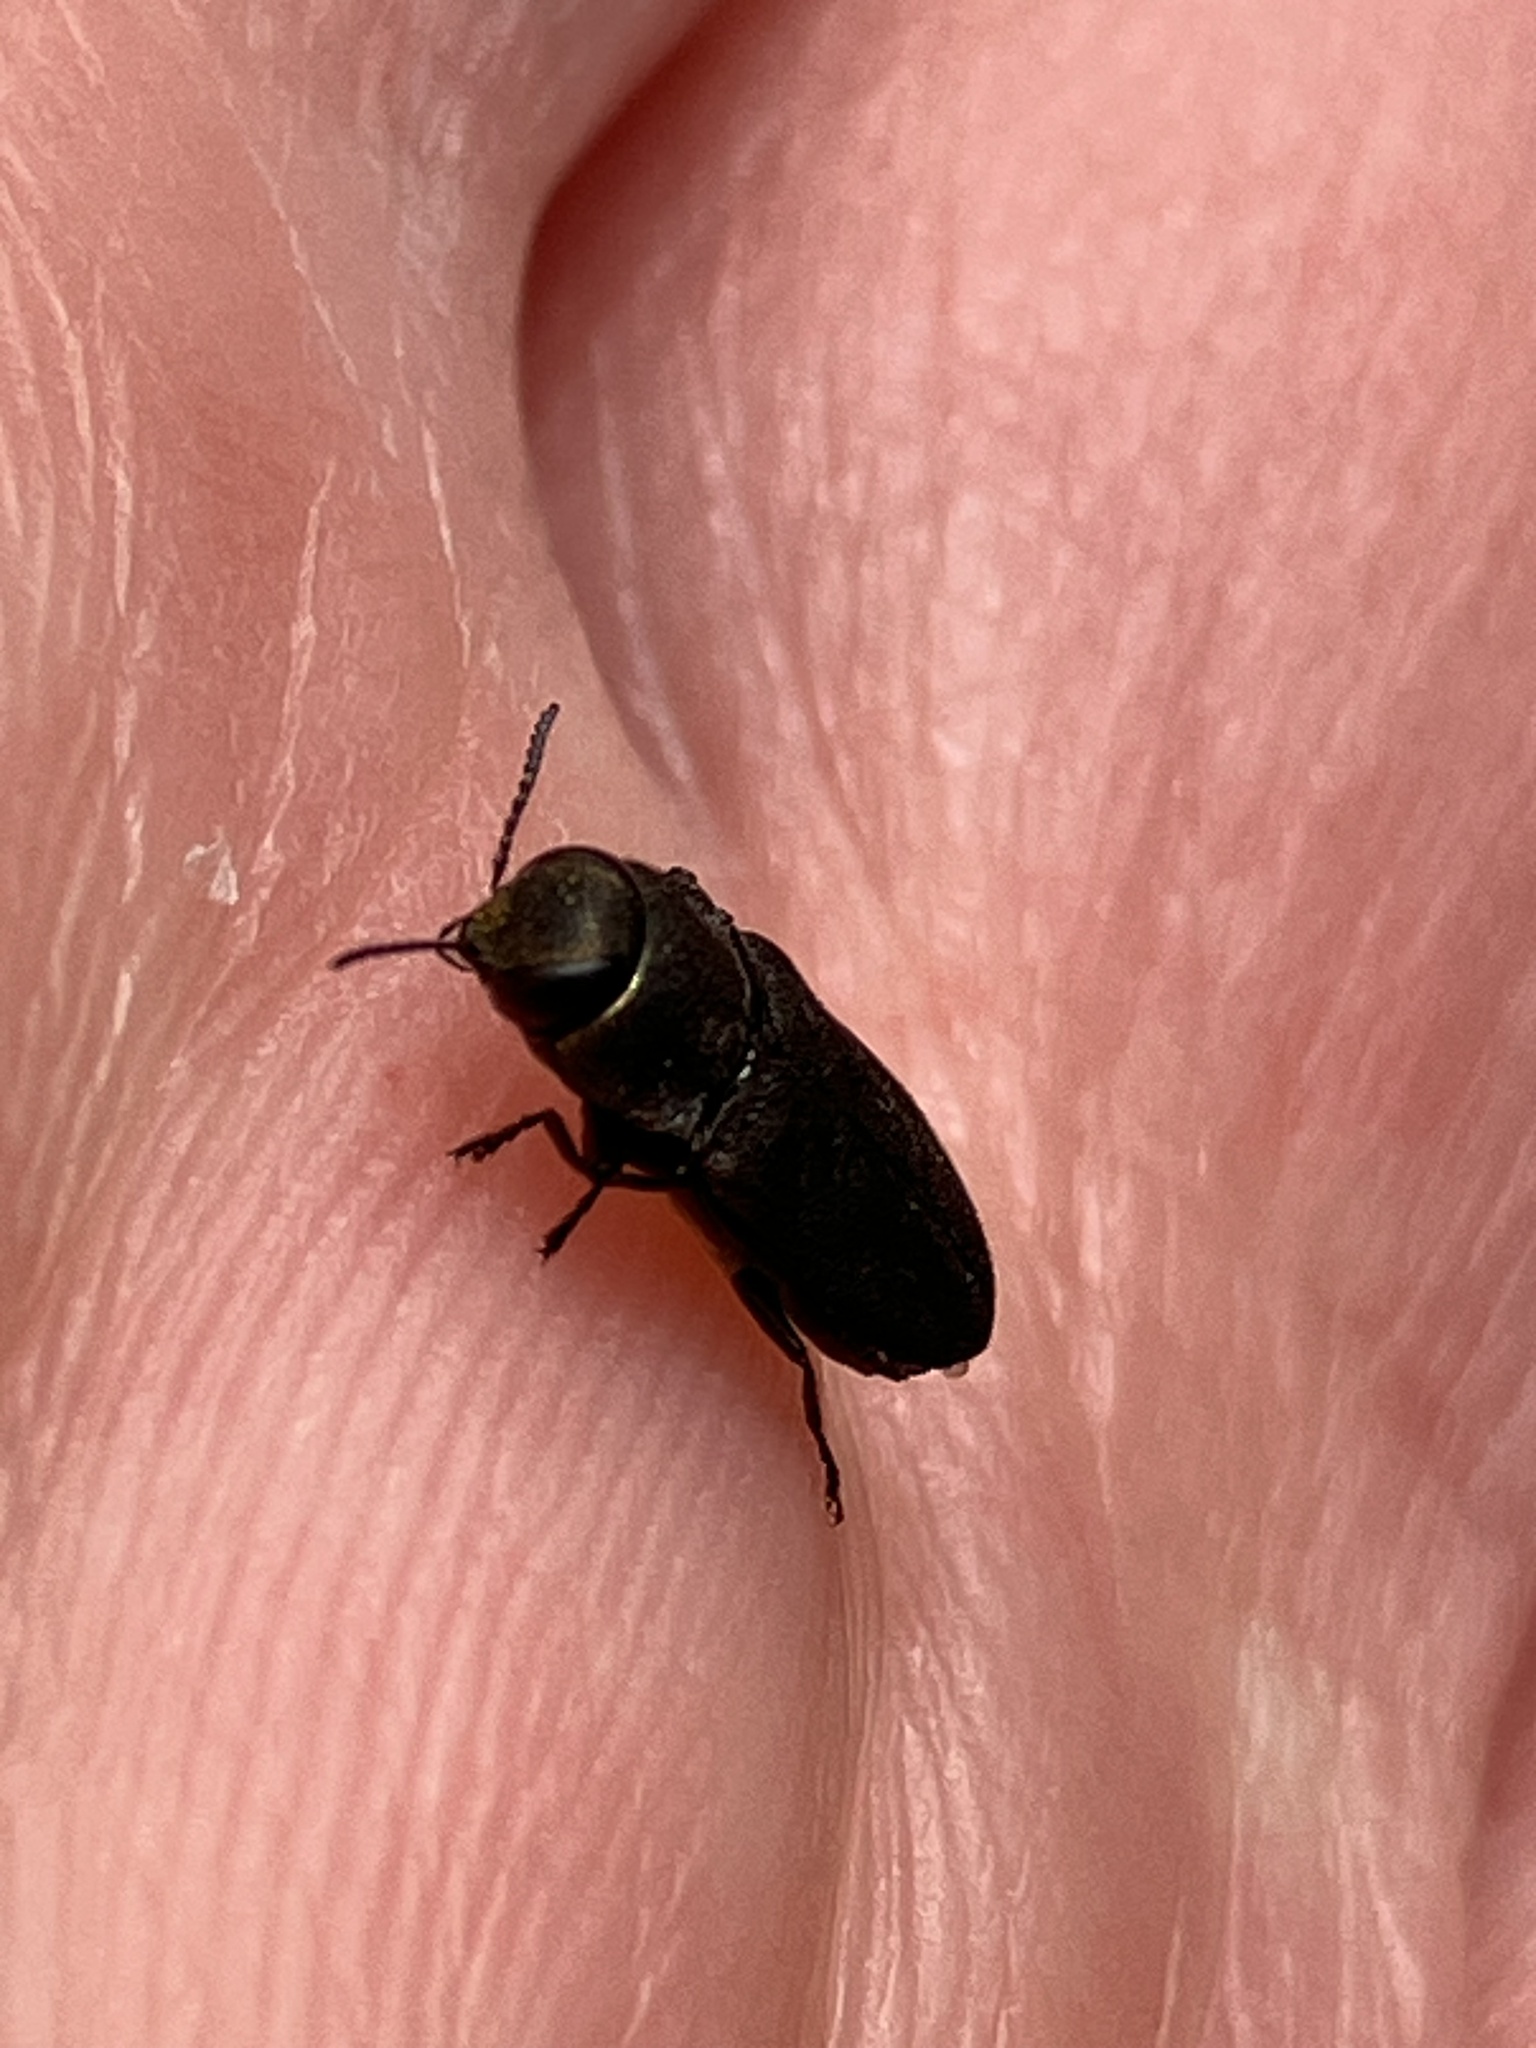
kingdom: Animalia
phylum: Arthropoda
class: Insecta
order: Coleoptera
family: Buprestidae
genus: Anthaxia
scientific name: Anthaxia sepulchralis
